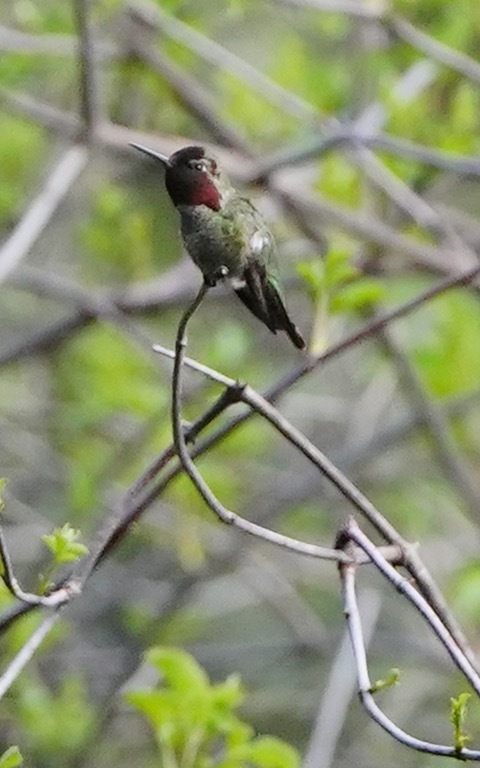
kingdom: Animalia
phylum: Chordata
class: Aves
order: Apodiformes
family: Trochilidae
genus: Calypte
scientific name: Calypte anna
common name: Anna's hummingbird
